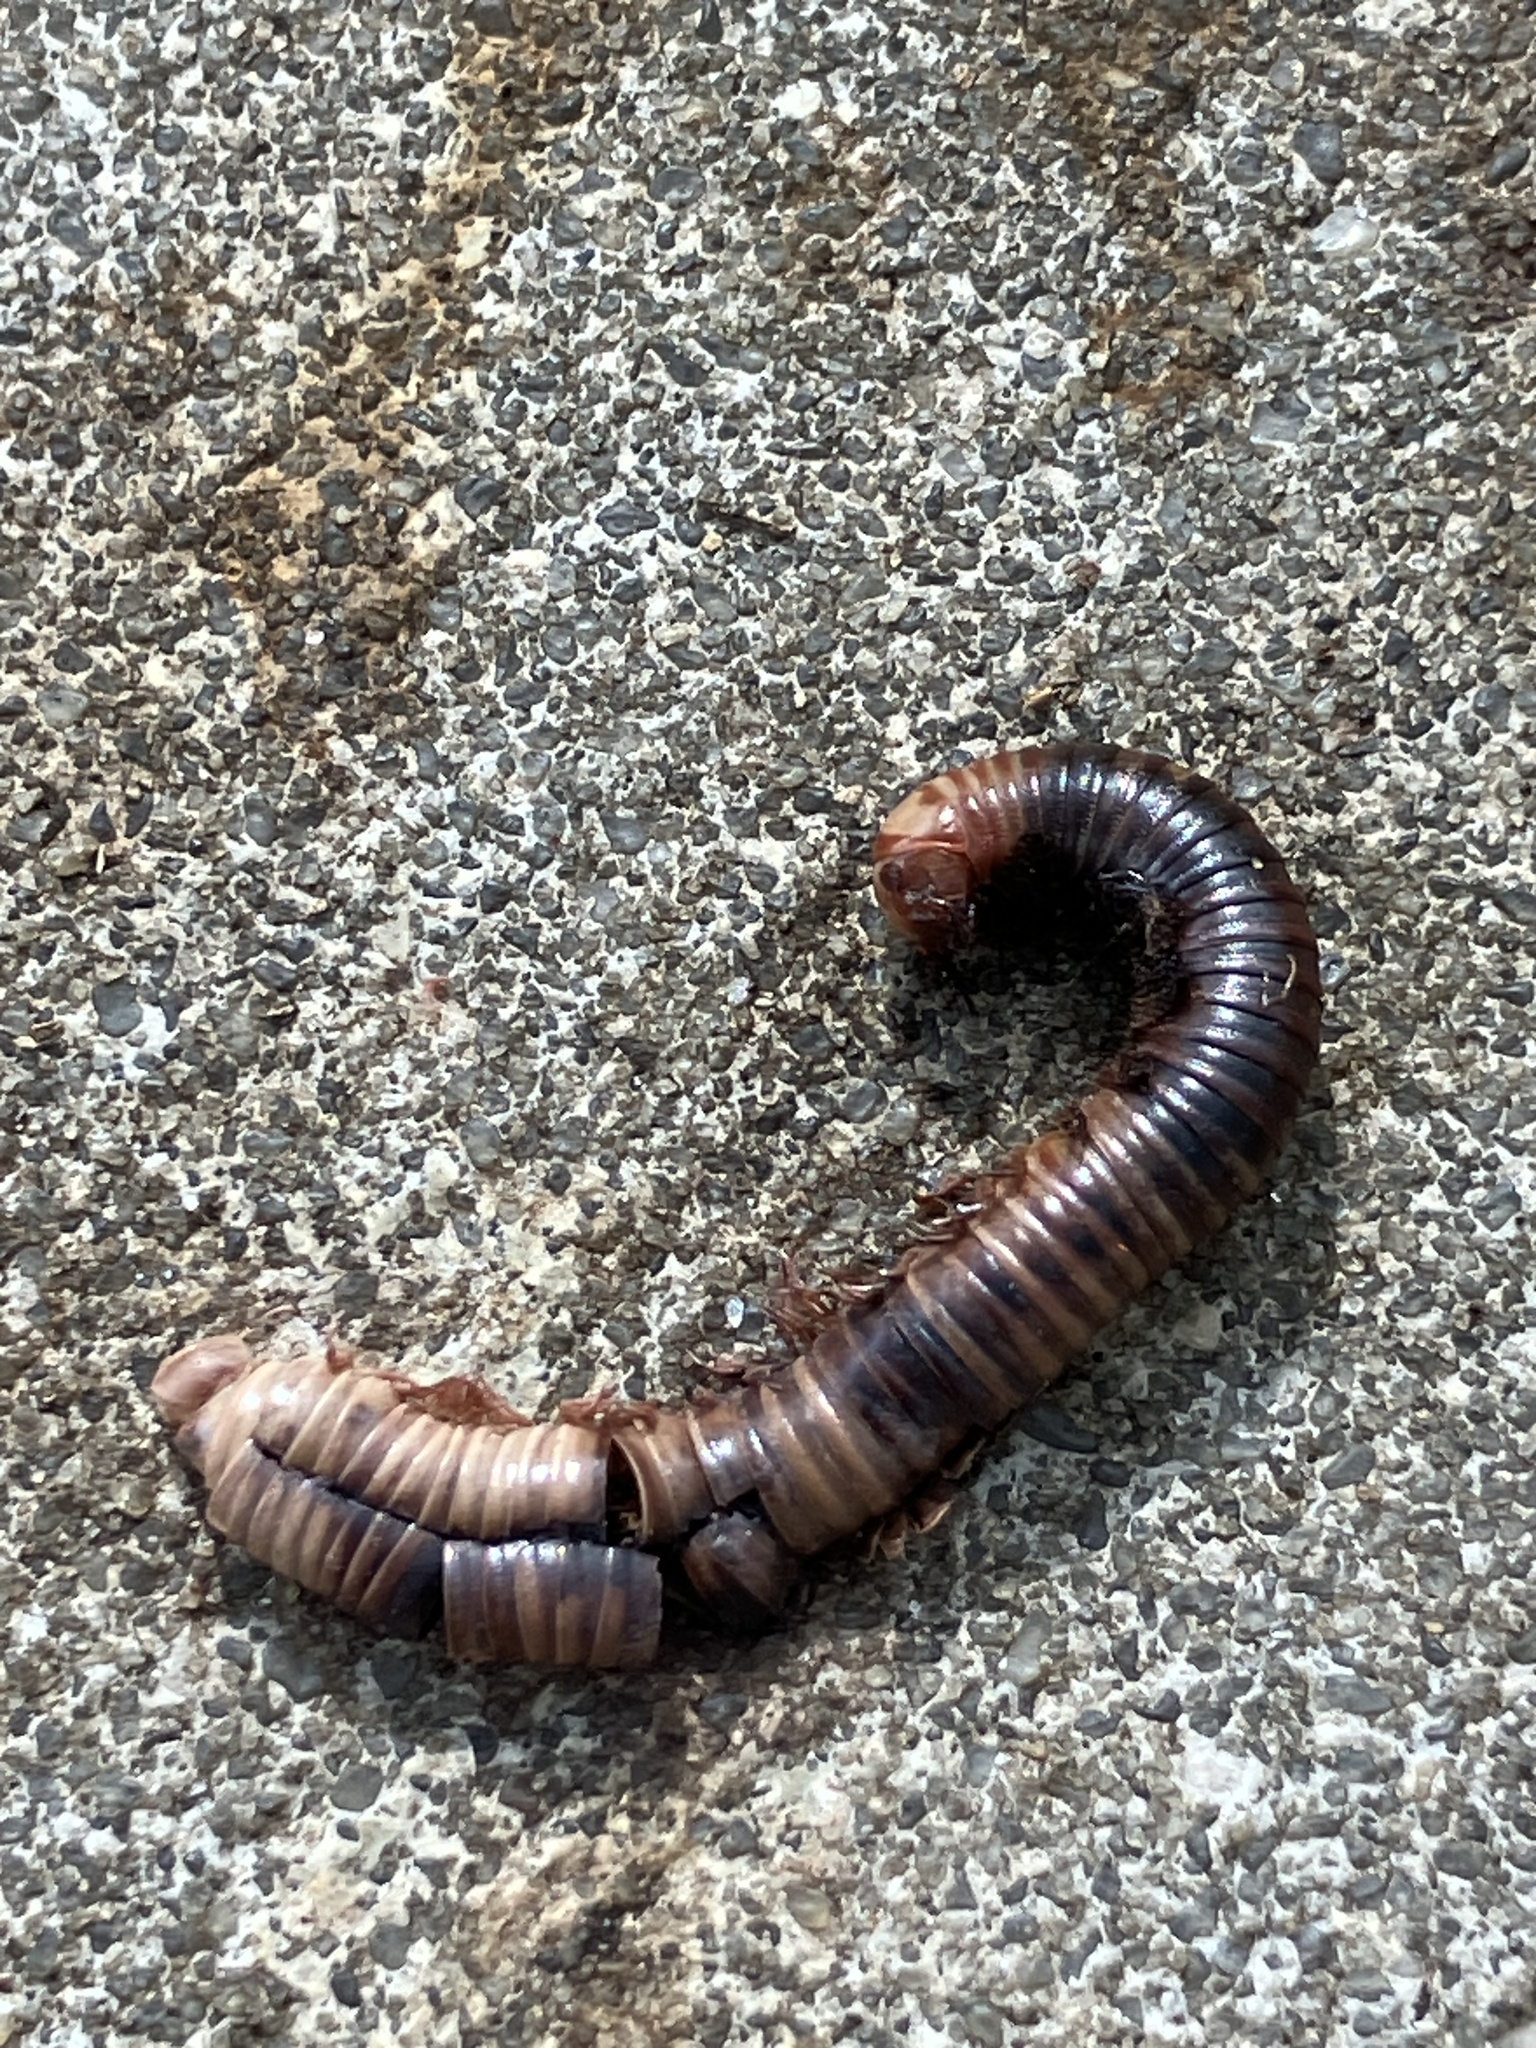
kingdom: Animalia
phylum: Arthropoda
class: Diplopoda
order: Spirobolida
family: Pachybolidae
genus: Trigoniulus
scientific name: Trigoniulus corallinus
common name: Millipede
